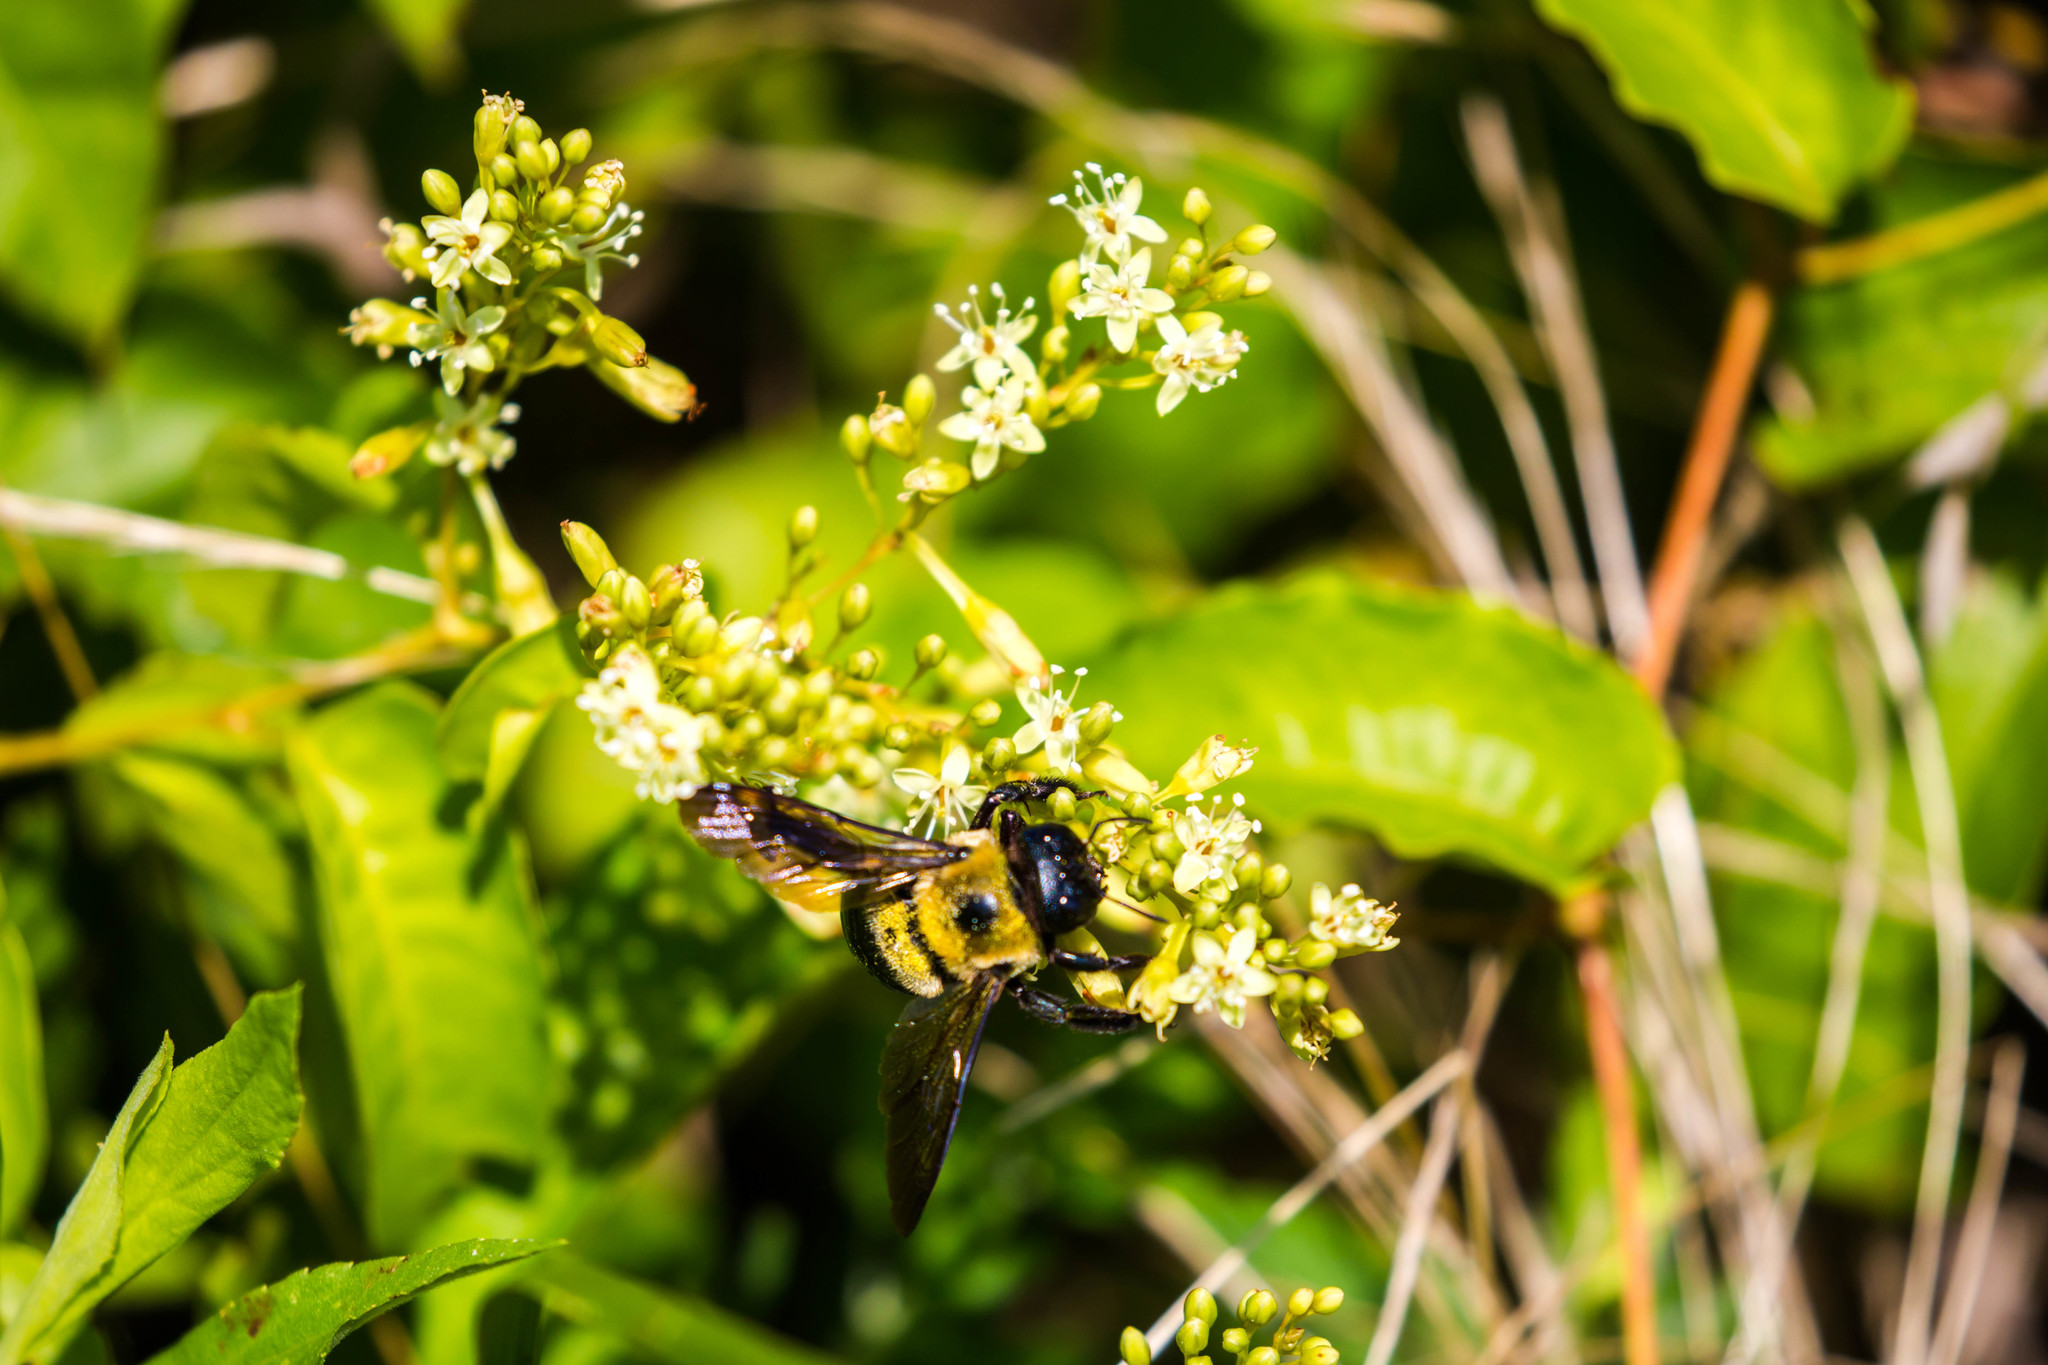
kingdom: Animalia
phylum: Arthropoda
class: Insecta
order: Hymenoptera
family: Apidae
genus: Xylocopa
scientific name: Xylocopa virginica
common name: Carpenter bee
